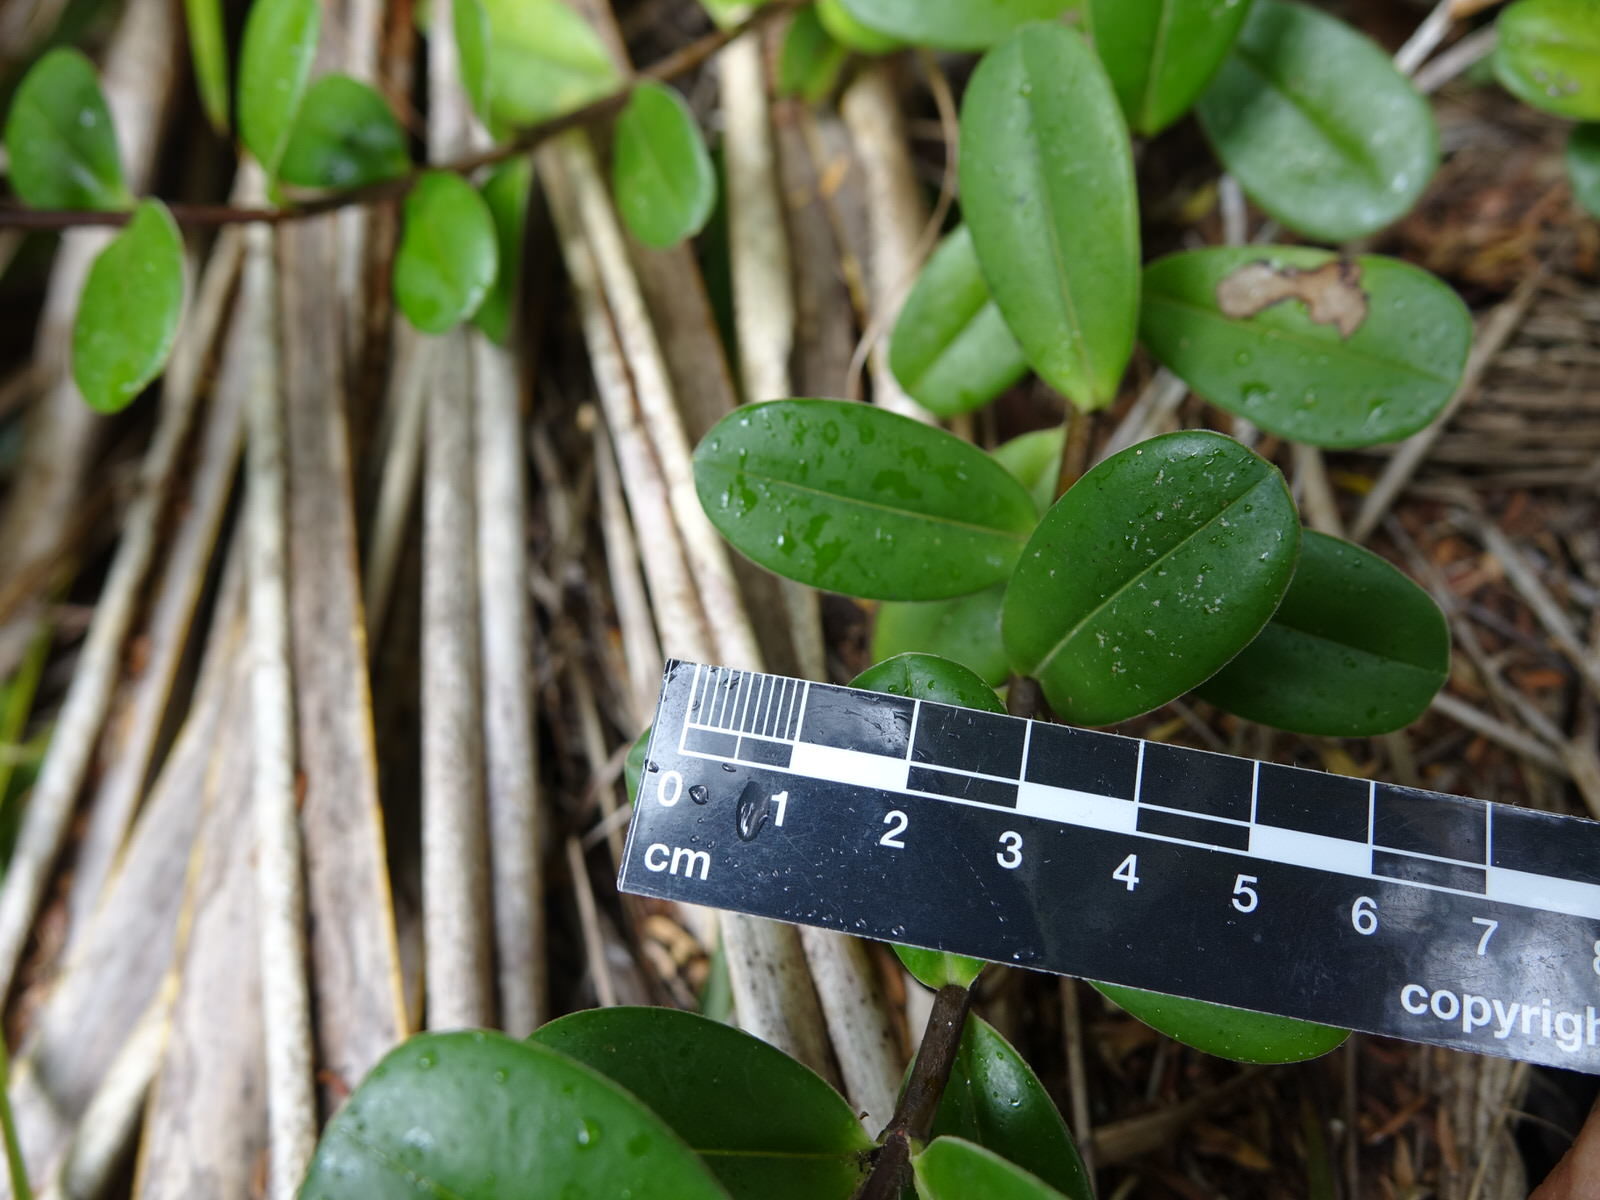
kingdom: Plantae
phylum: Tracheophyta
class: Magnoliopsida
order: Lamiales
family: Plantaginaceae
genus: Veronica
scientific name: Veronica obtusata
